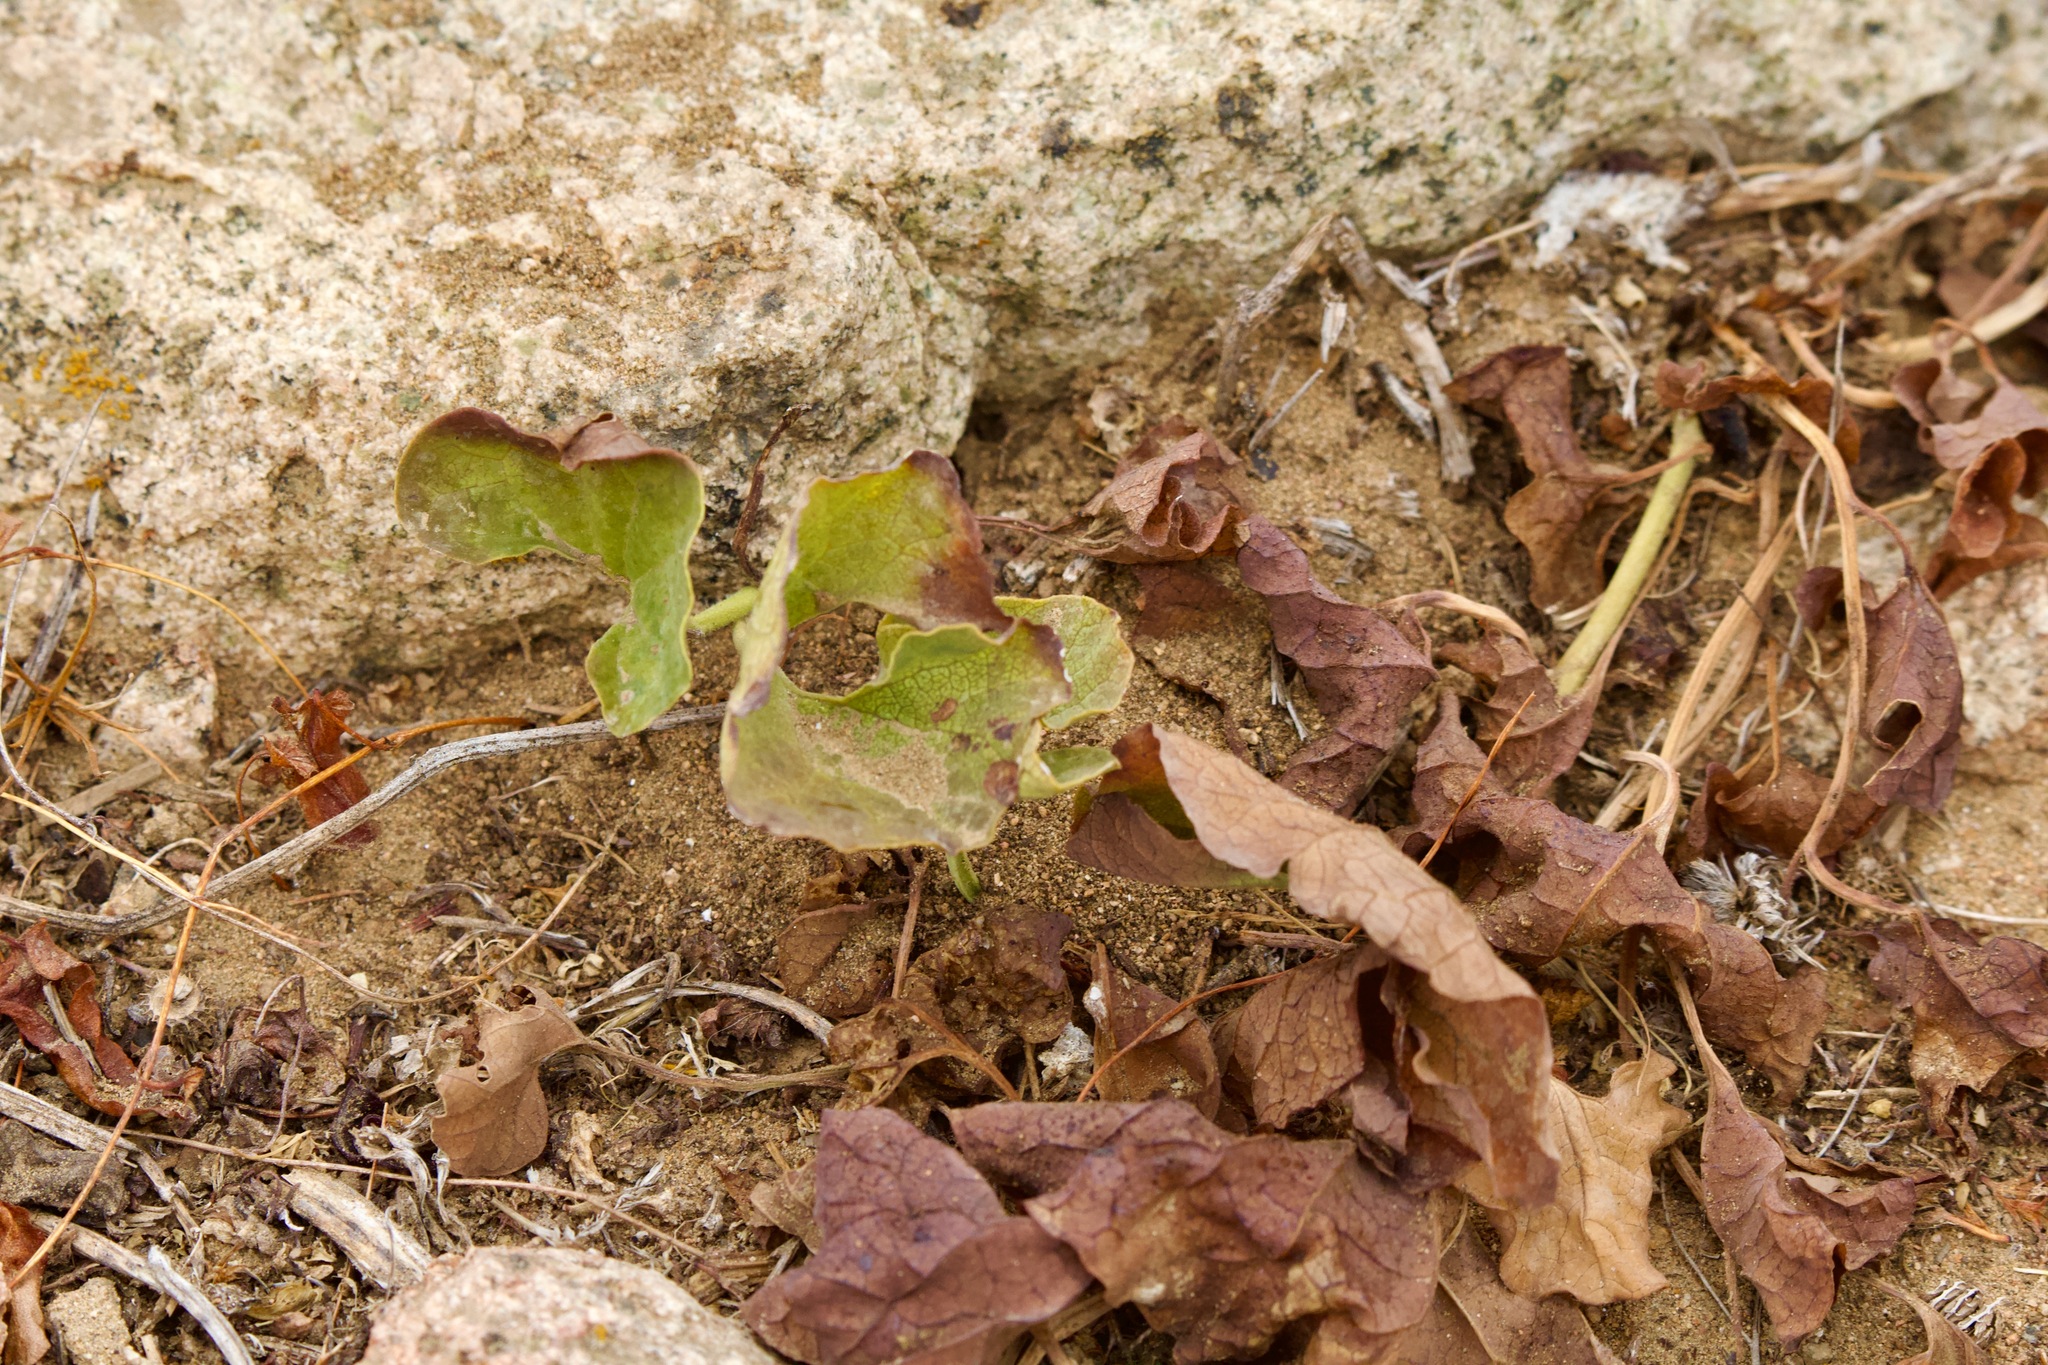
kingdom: Plantae
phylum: Tracheophyta
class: Magnoliopsida
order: Piperales
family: Aristolochiaceae
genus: Aristolochia
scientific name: Aristolochia chilensis
